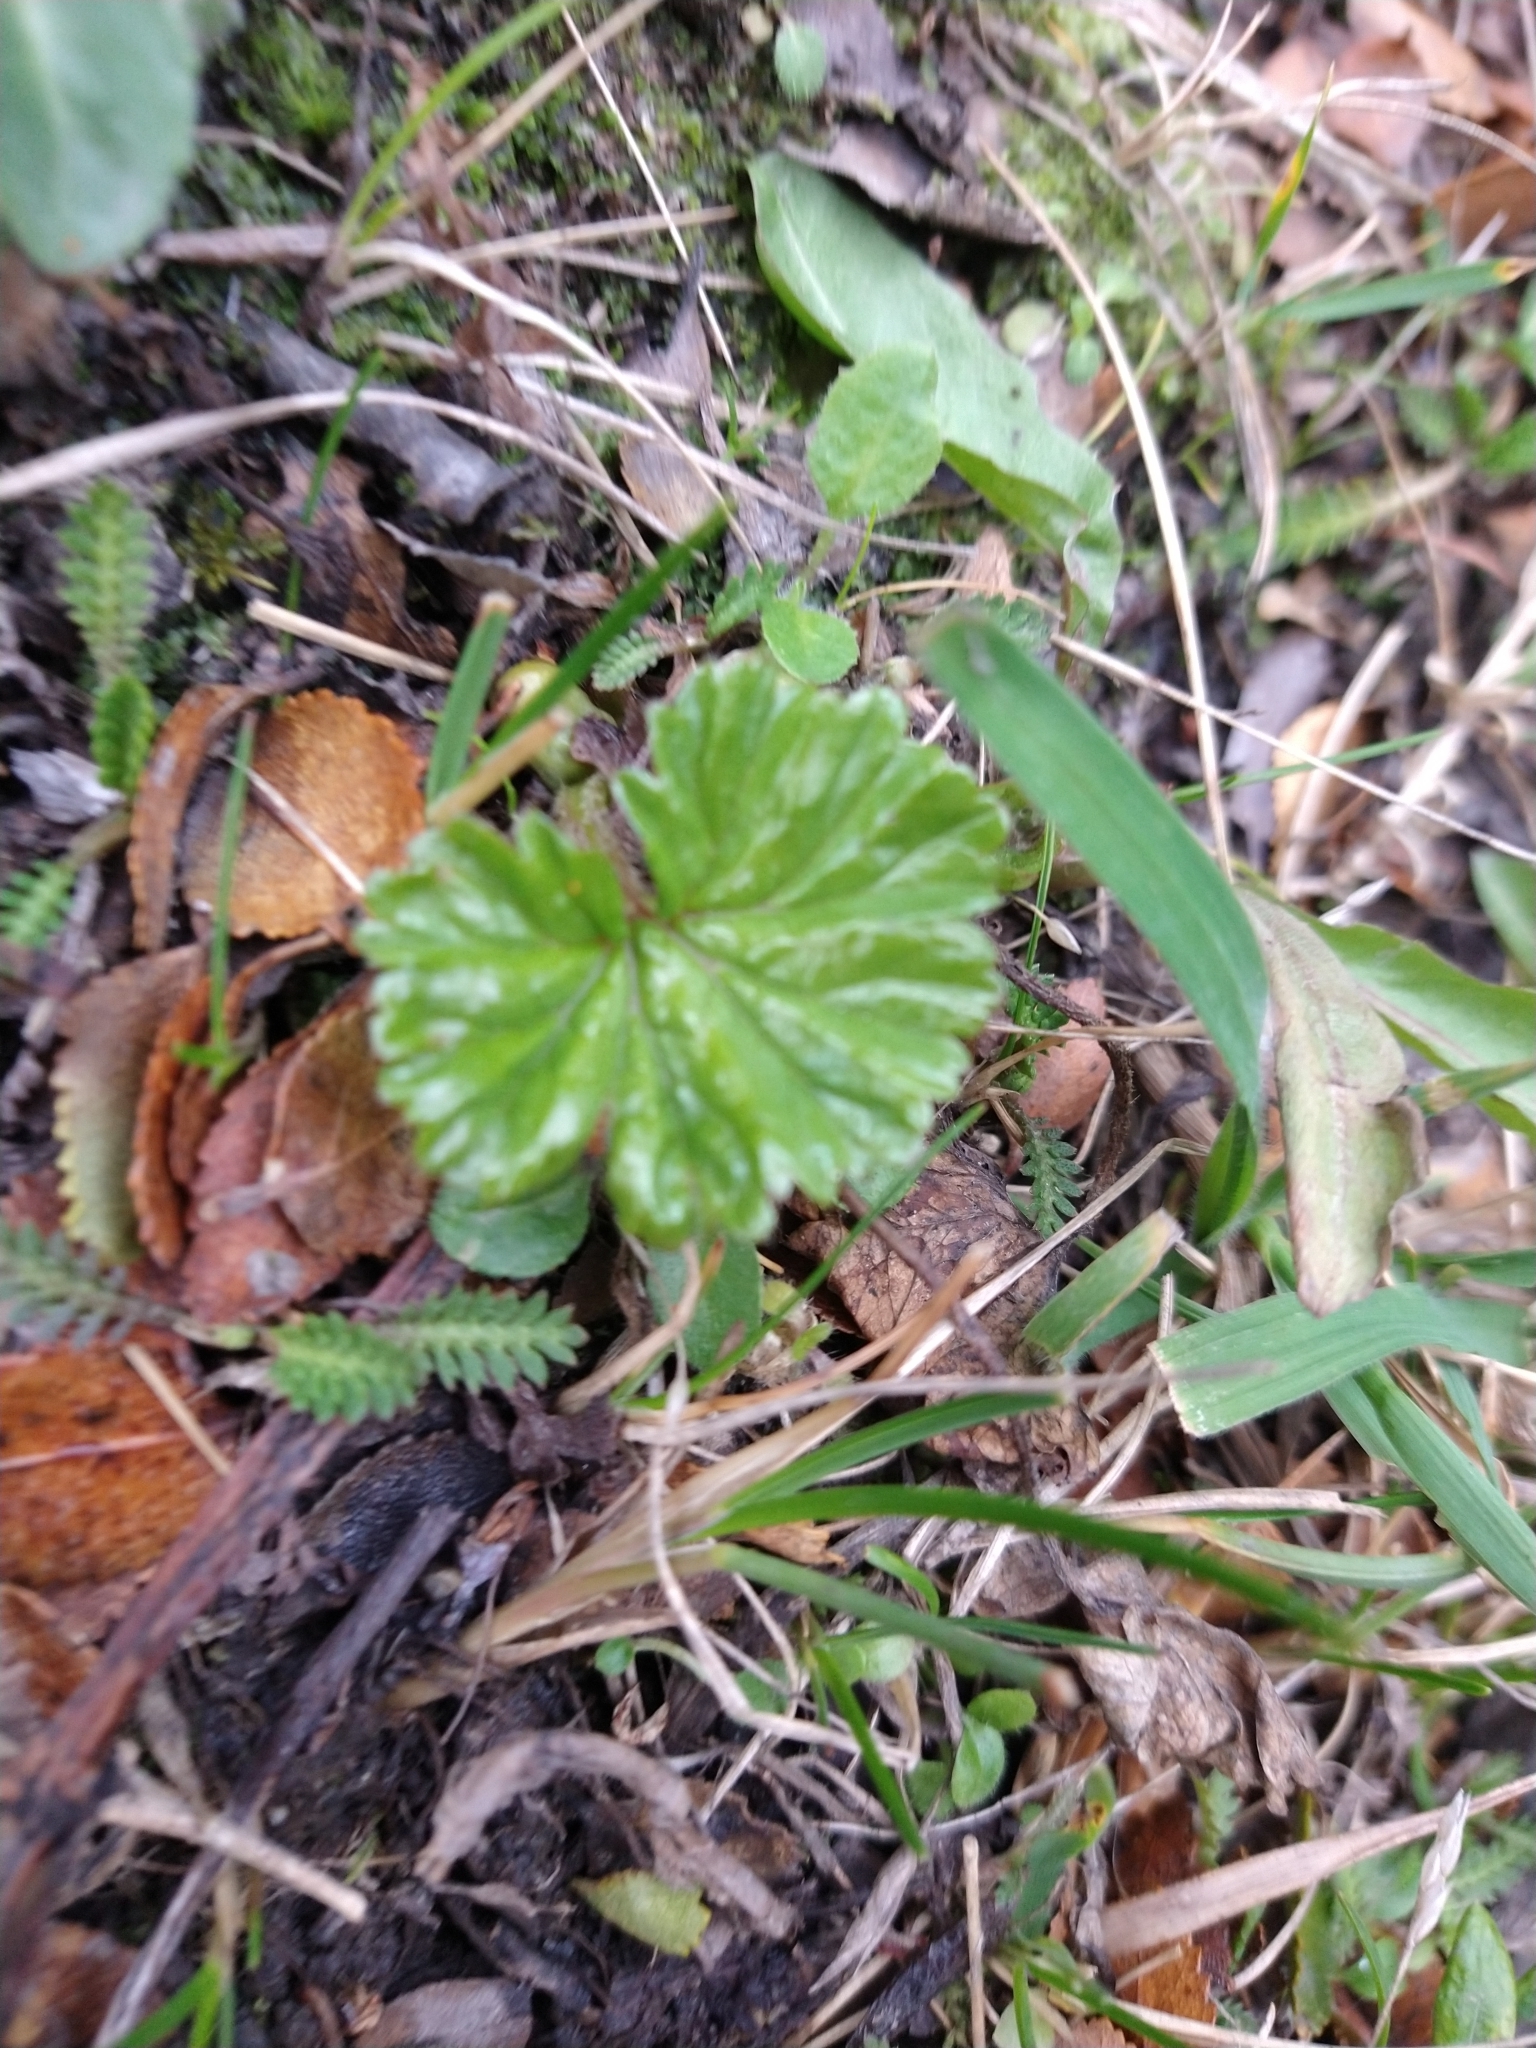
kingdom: Plantae
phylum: Tracheophyta
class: Magnoliopsida
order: Gunnerales
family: Gunneraceae
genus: Gunnera
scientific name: Gunnera magellanica
